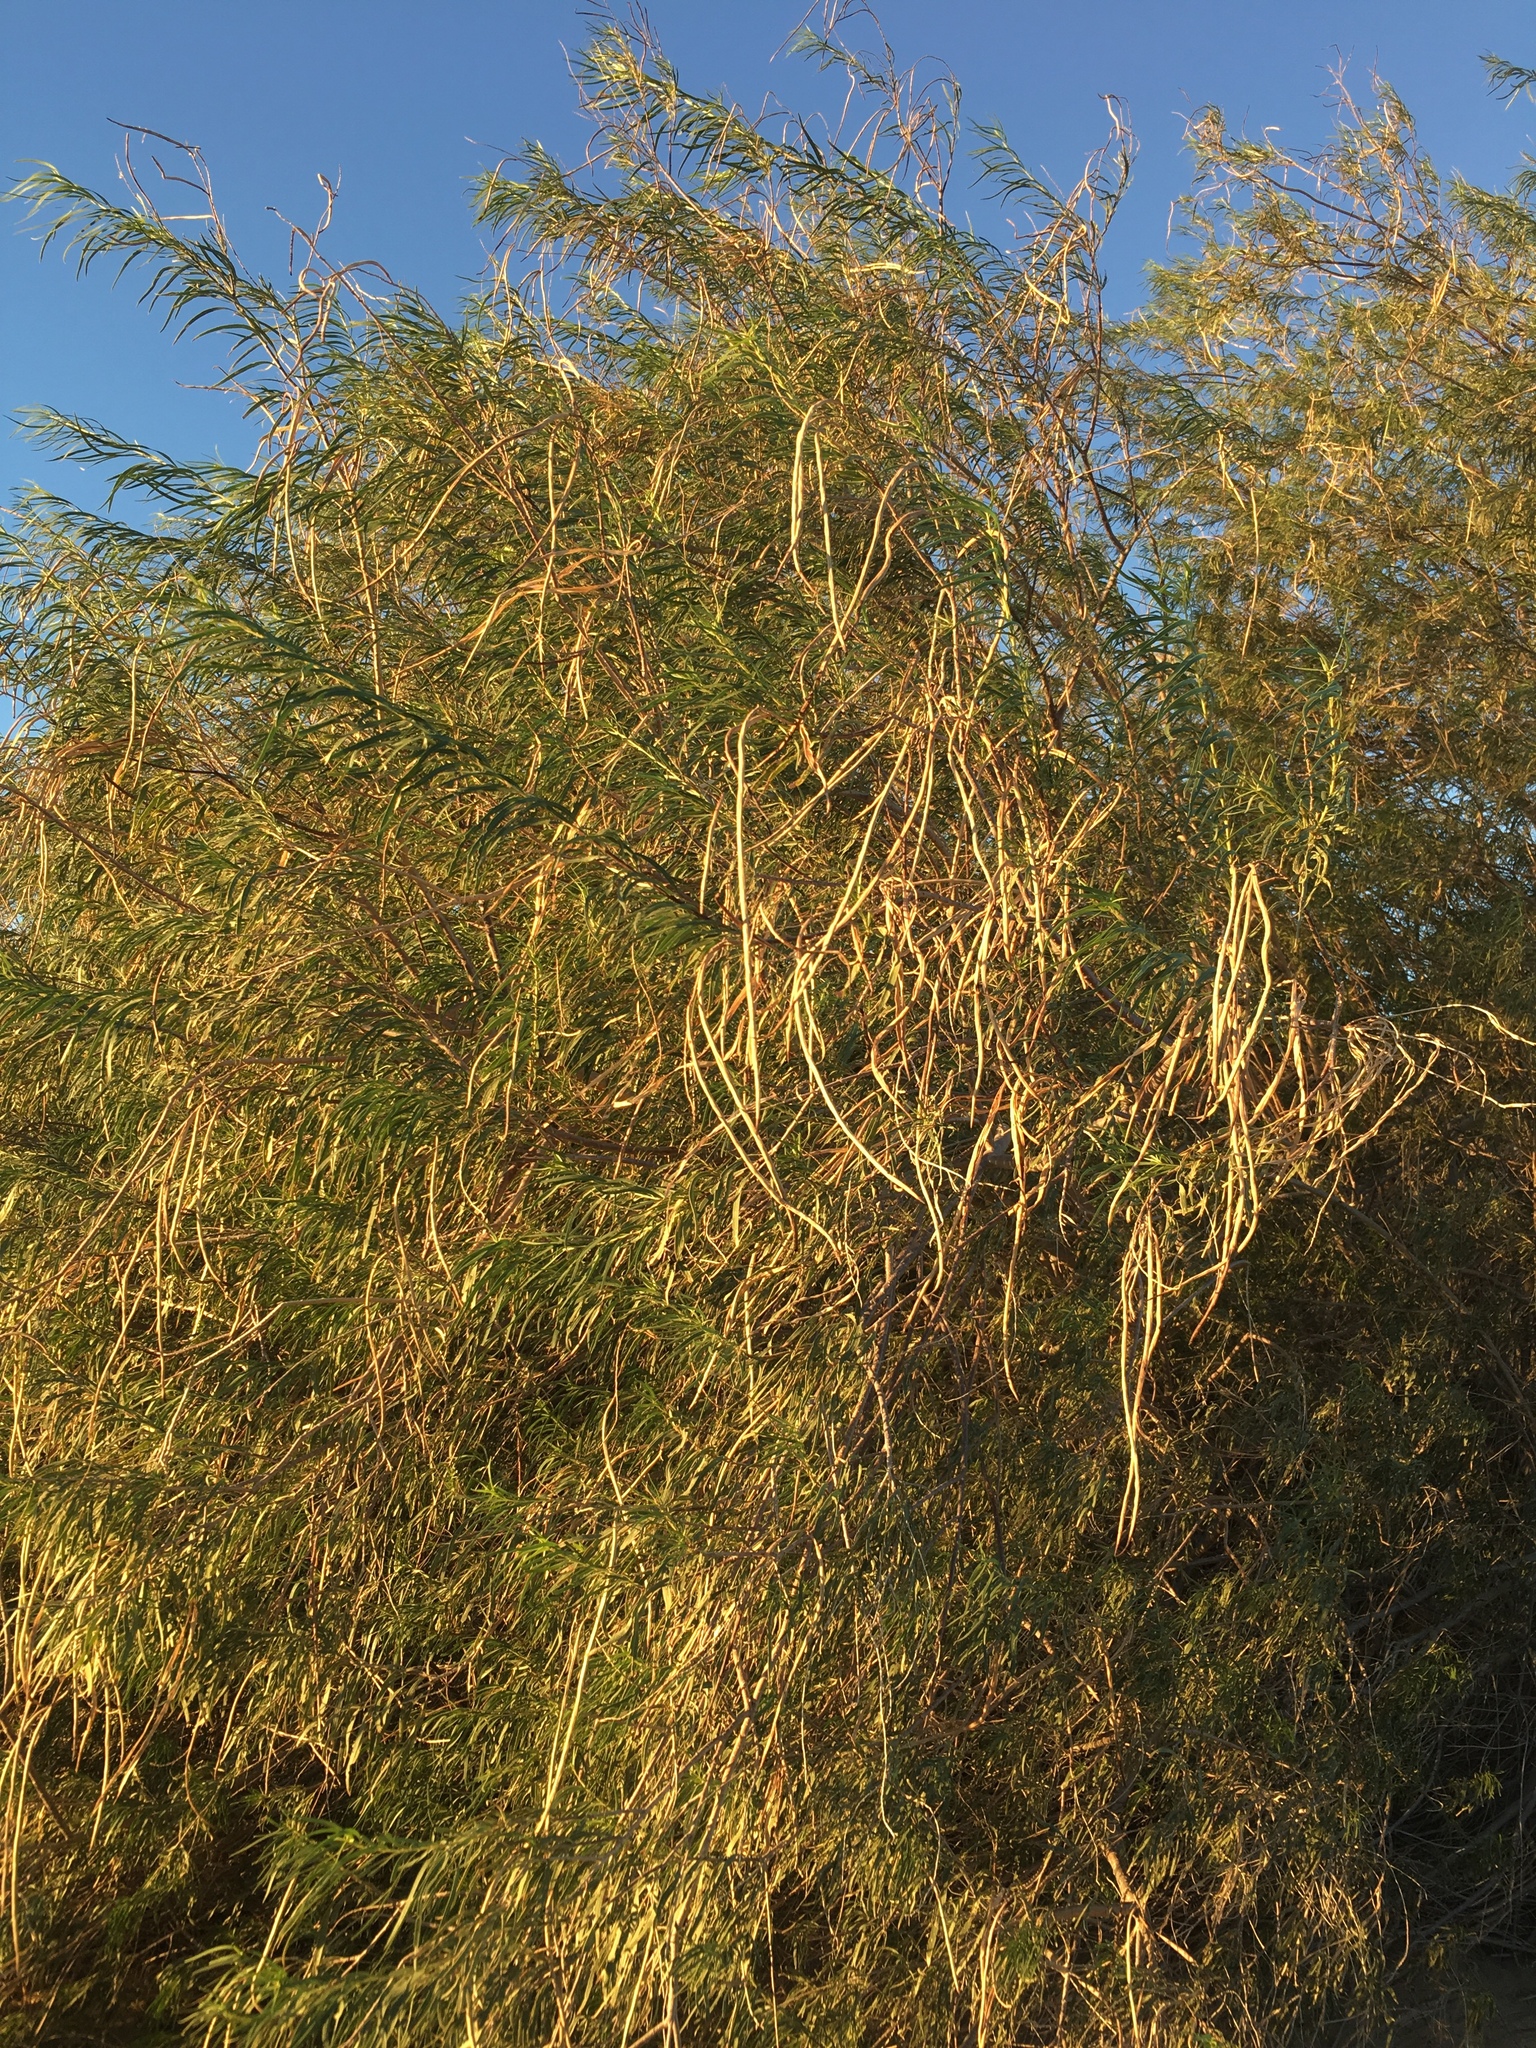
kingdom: Plantae
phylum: Tracheophyta
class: Magnoliopsida
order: Lamiales
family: Bignoniaceae
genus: Chilopsis
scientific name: Chilopsis linearis
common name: Desert-willow
